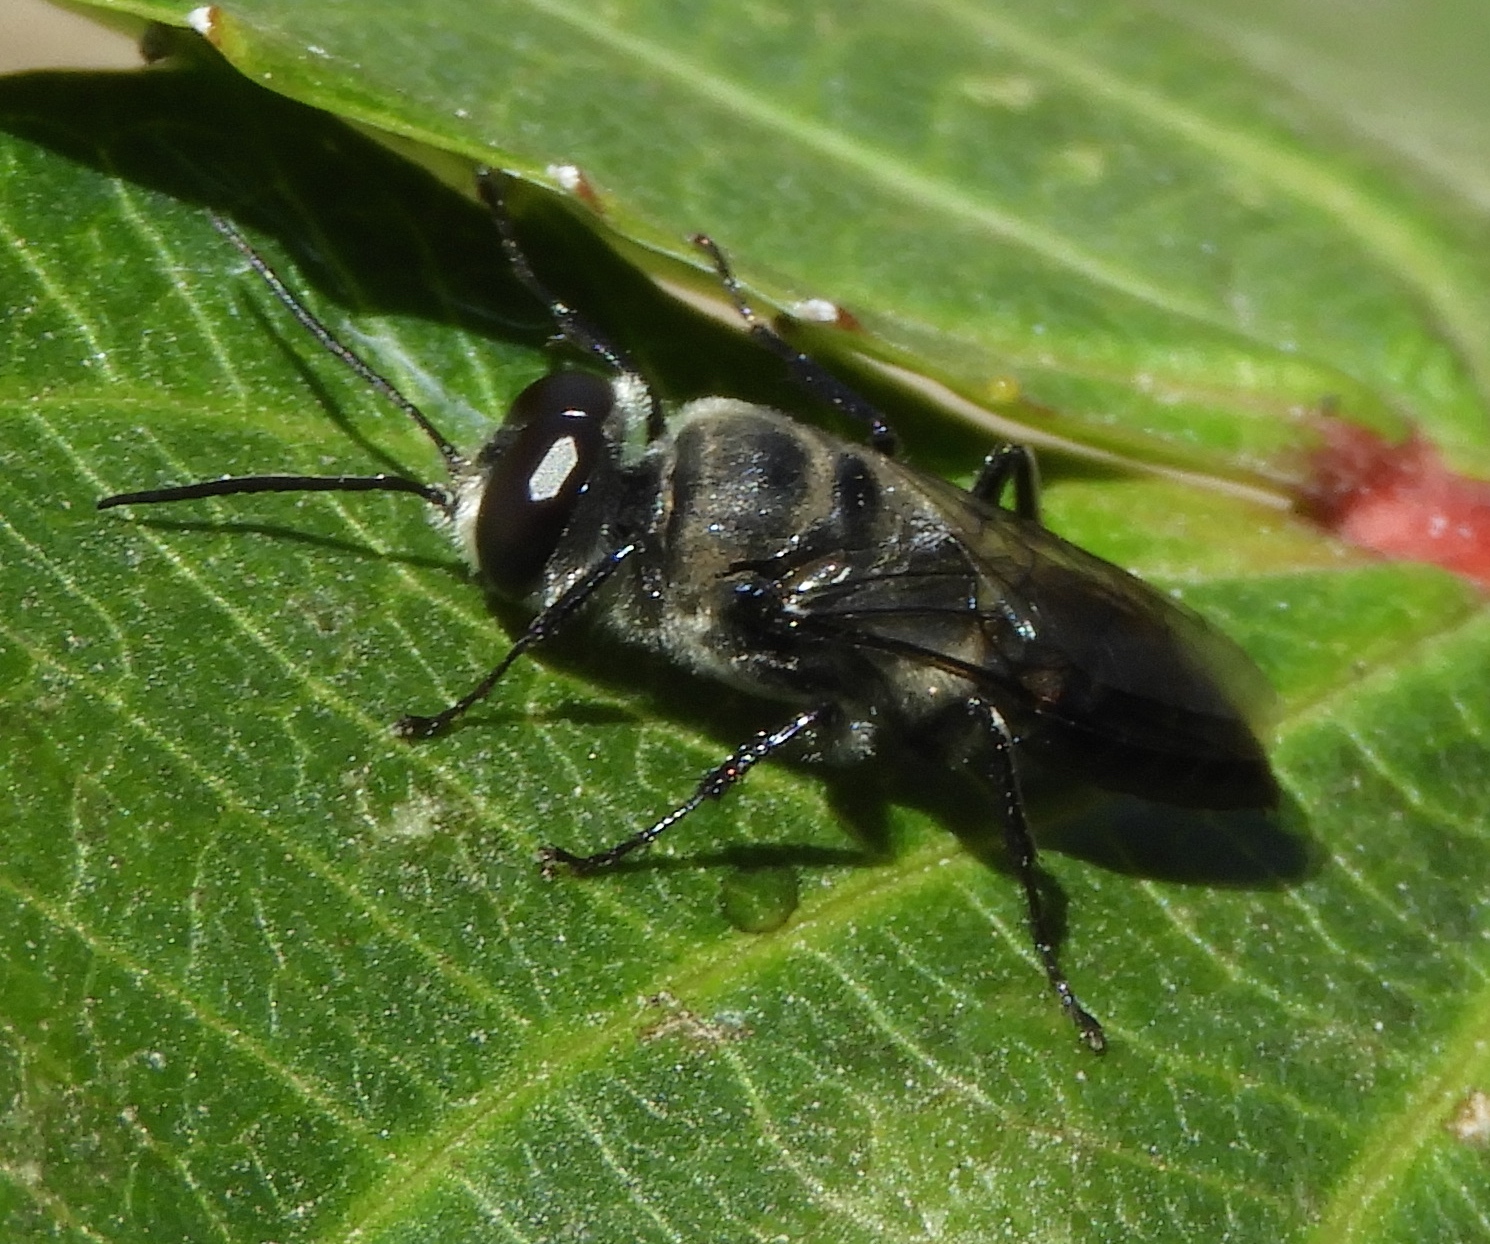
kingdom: Animalia
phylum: Arthropoda
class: Insecta
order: Hymenoptera
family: Crabronidae
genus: Astata
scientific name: Astata
